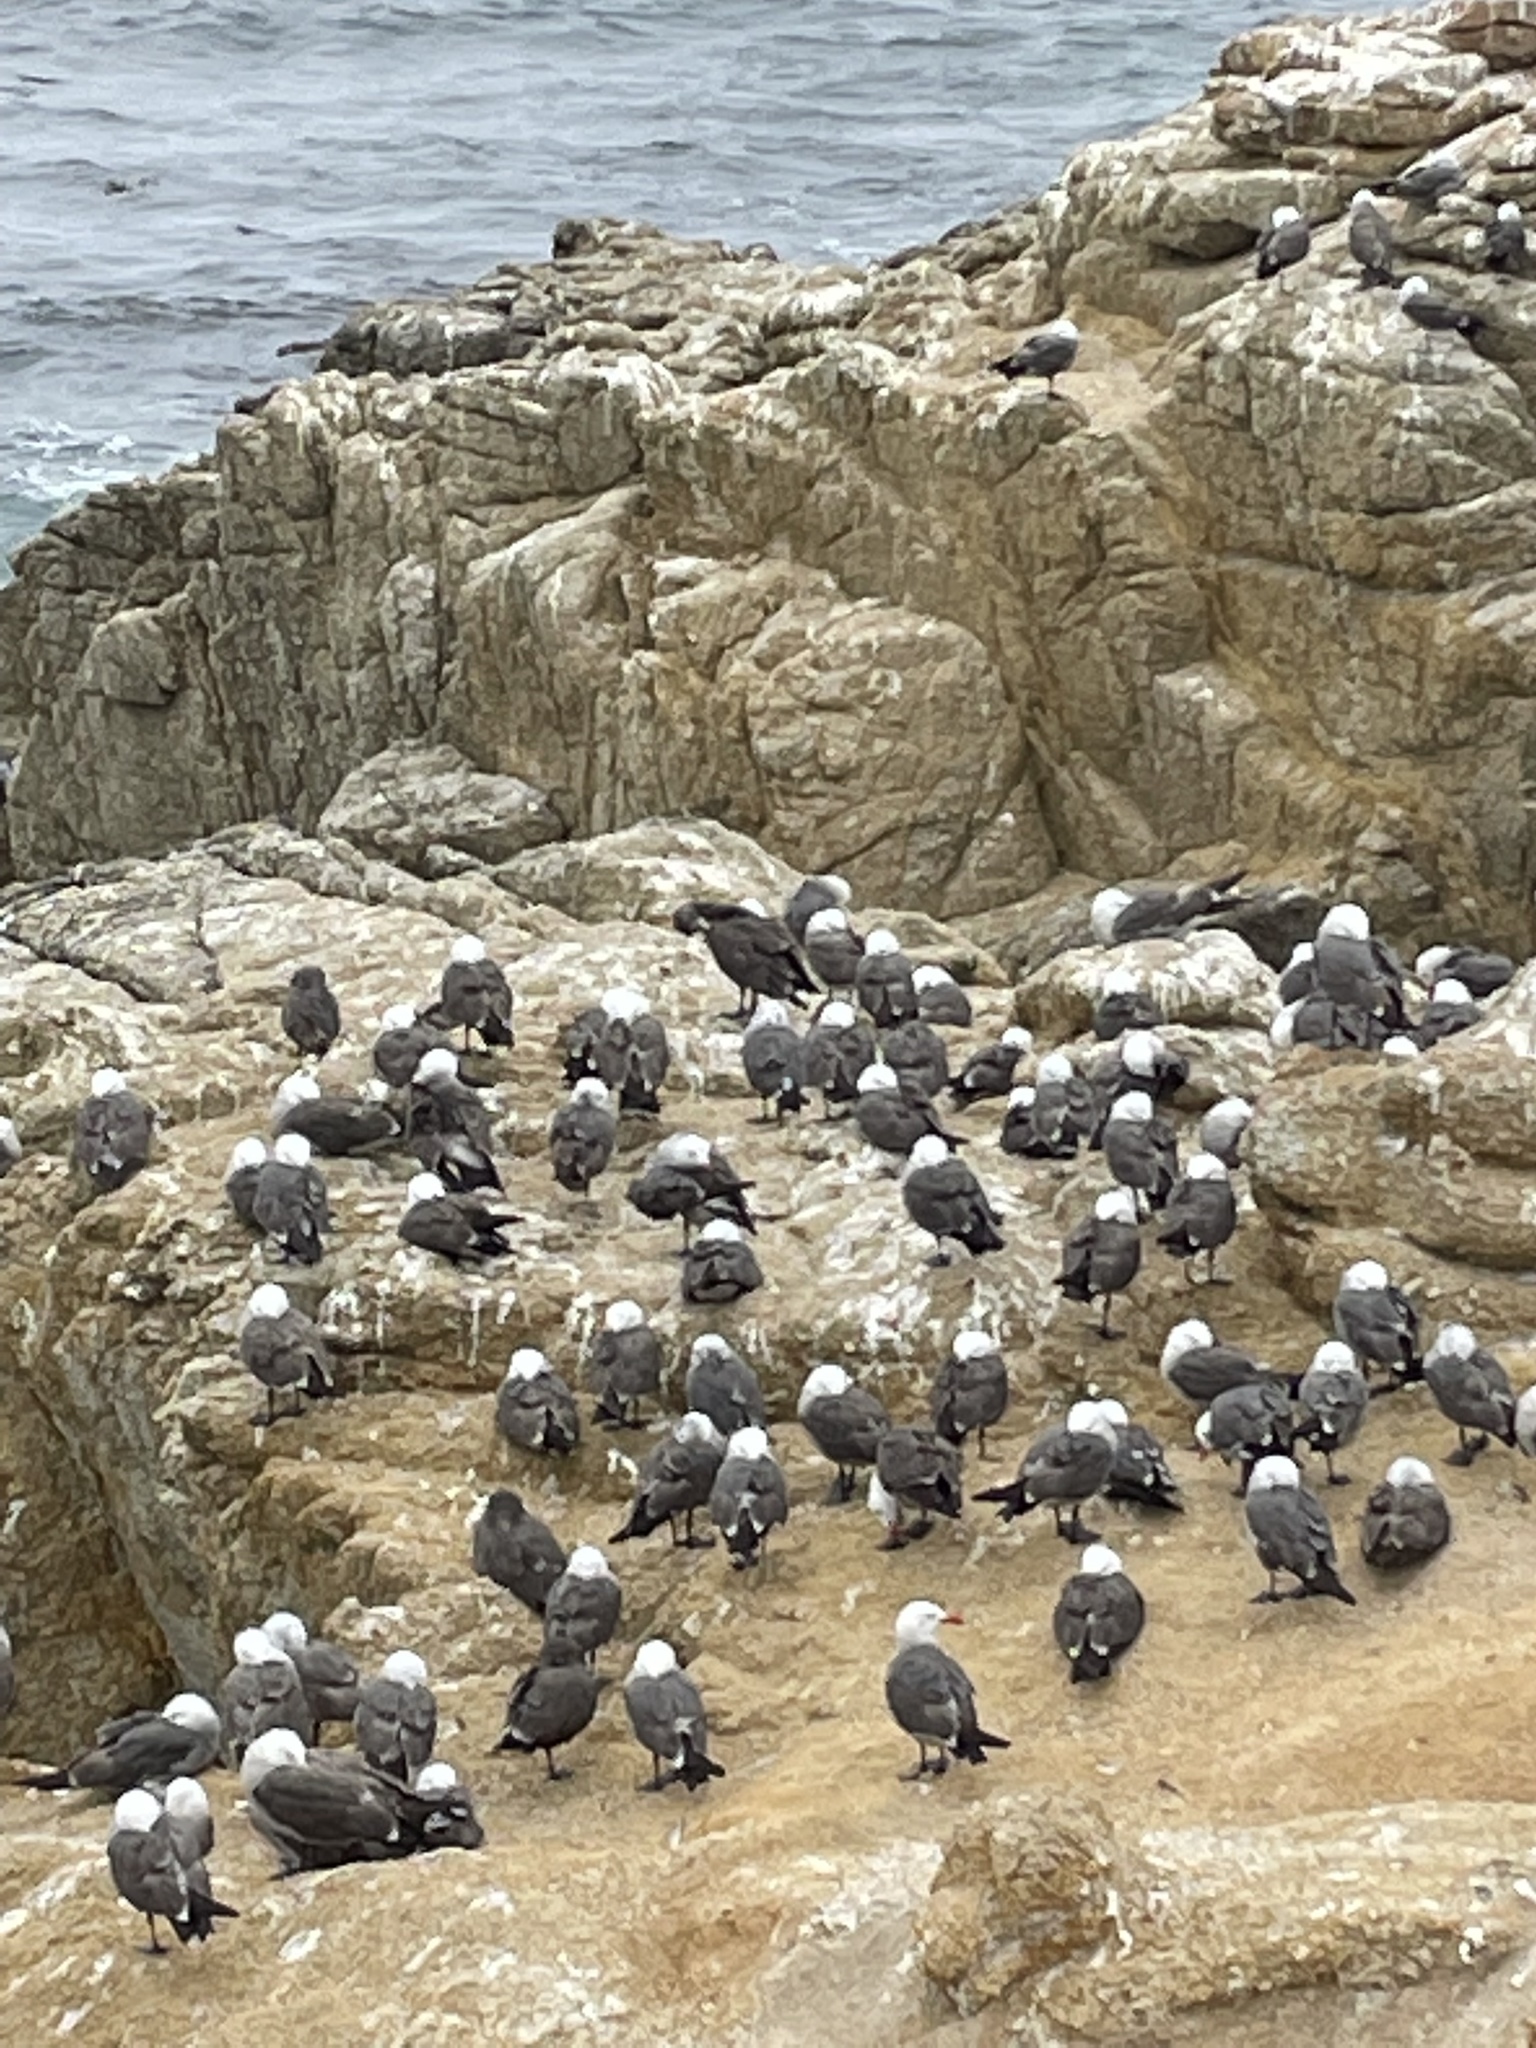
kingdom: Animalia
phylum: Chordata
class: Aves
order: Charadriiformes
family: Laridae
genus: Larus
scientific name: Larus heermanni
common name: Heermann's gull
